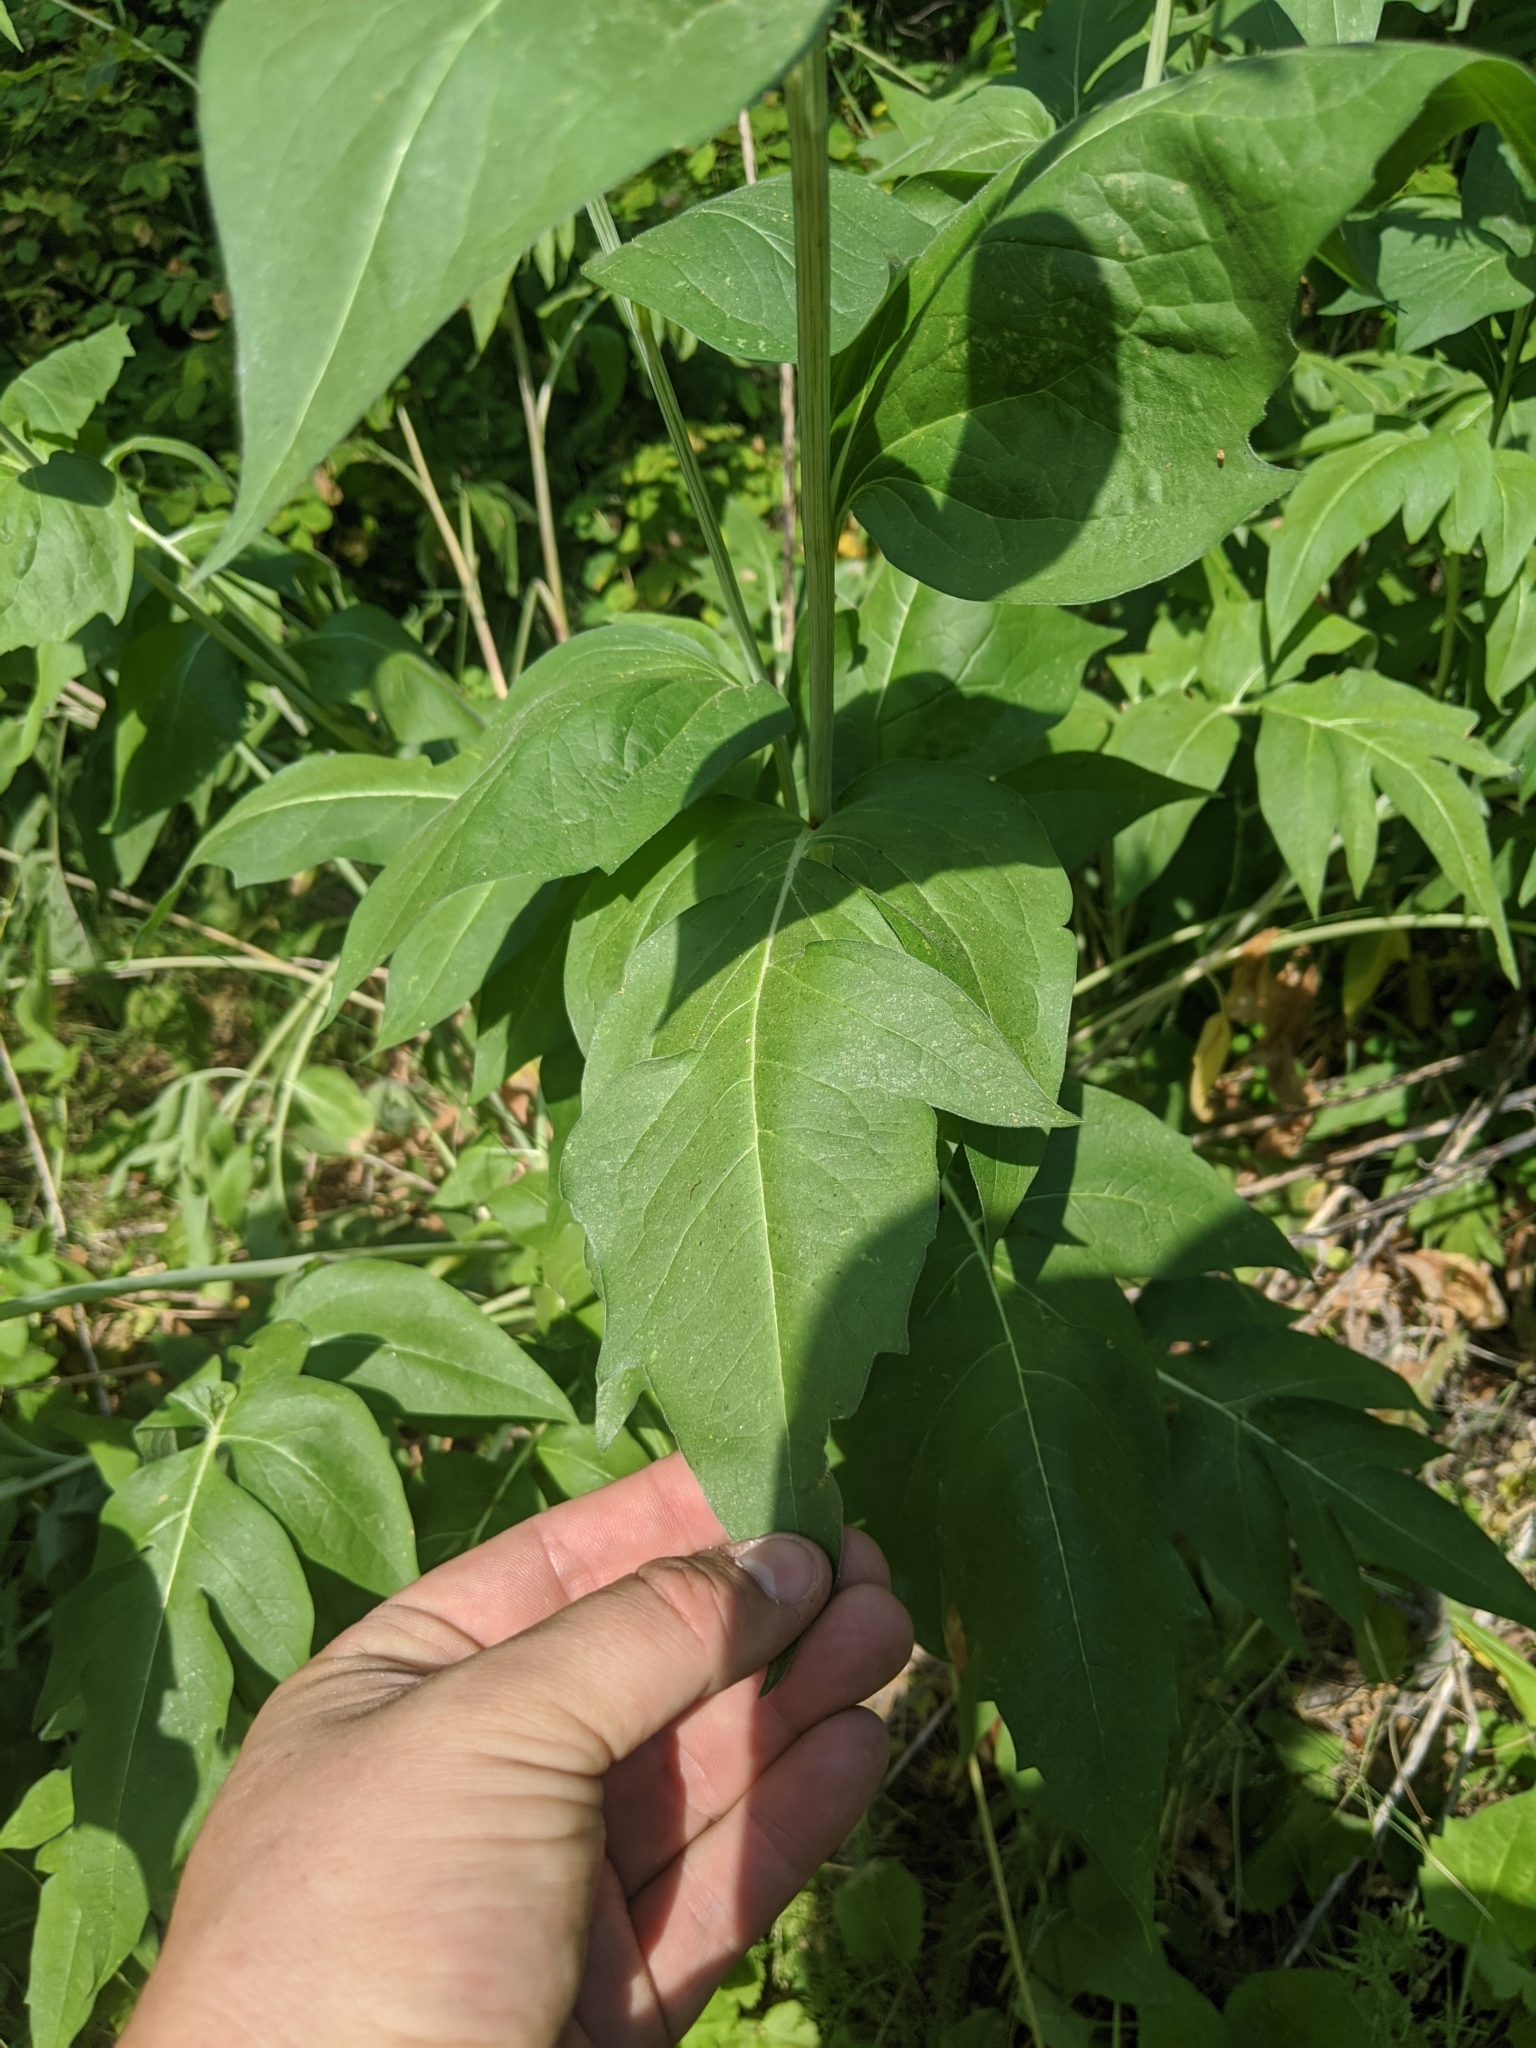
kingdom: Plantae
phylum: Tracheophyta
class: Magnoliopsida
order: Asterales
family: Asteraceae
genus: Rudbeckia
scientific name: Rudbeckia alpicola
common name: Washington coneflower
